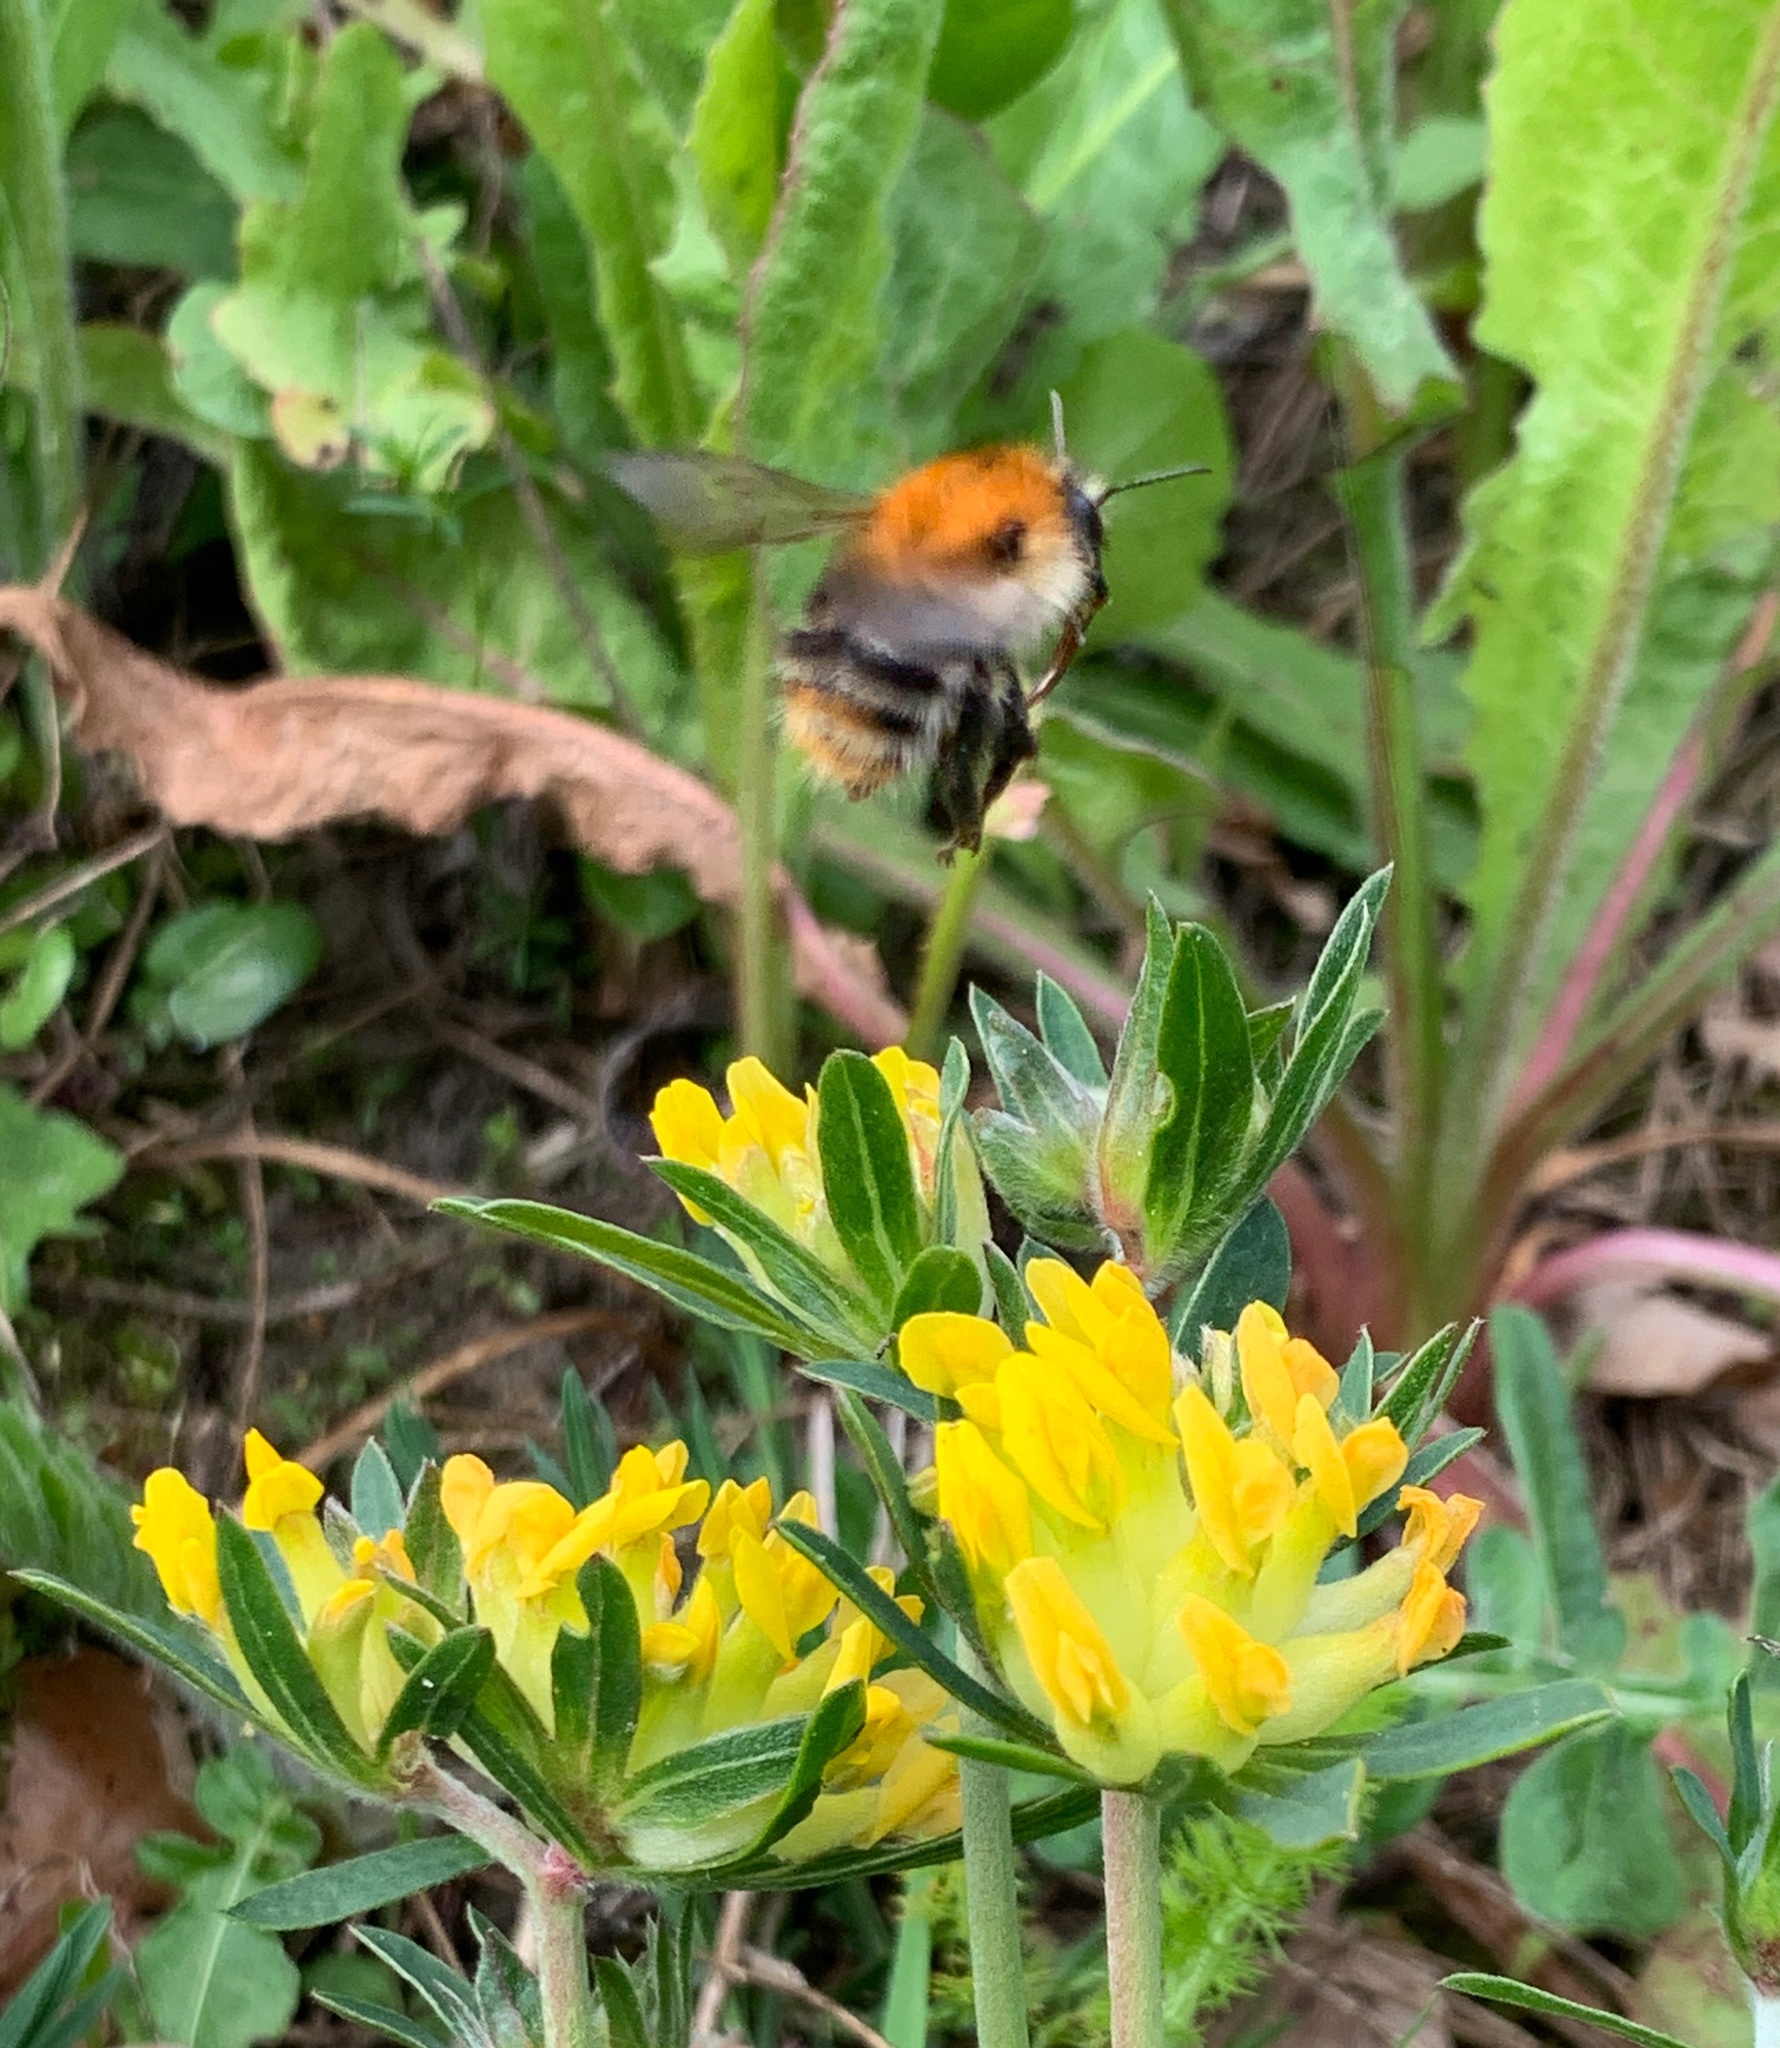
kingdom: Animalia
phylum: Arthropoda
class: Insecta
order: Hymenoptera
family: Apidae
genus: Bombus
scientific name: Bombus pascuorum
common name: Common carder bee
